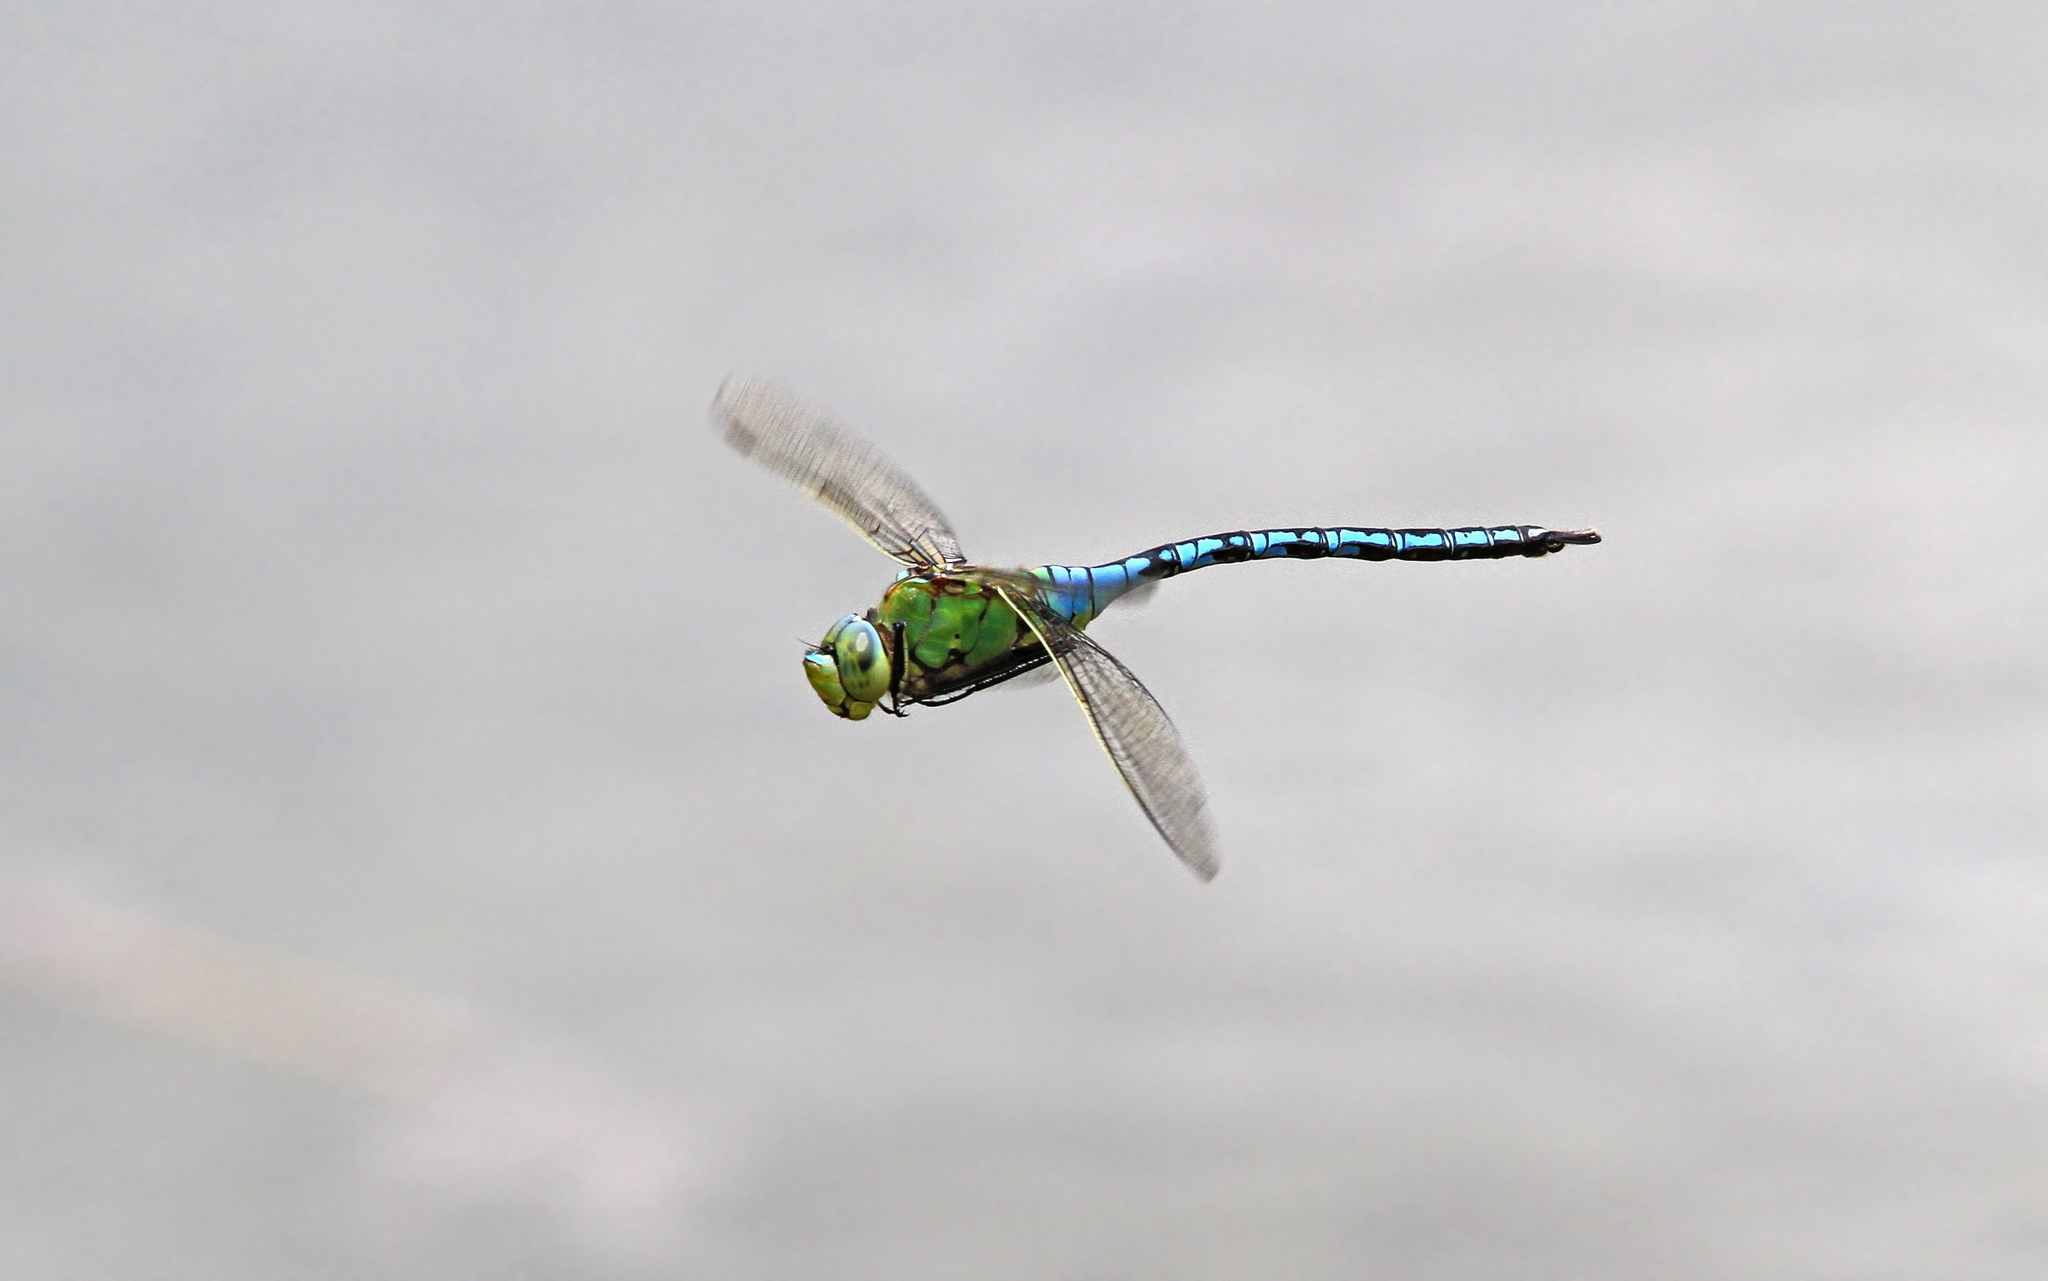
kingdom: Animalia
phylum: Arthropoda
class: Insecta
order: Odonata
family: Aeshnidae
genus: Anax
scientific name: Anax imperator
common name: Emperor dragonfly
